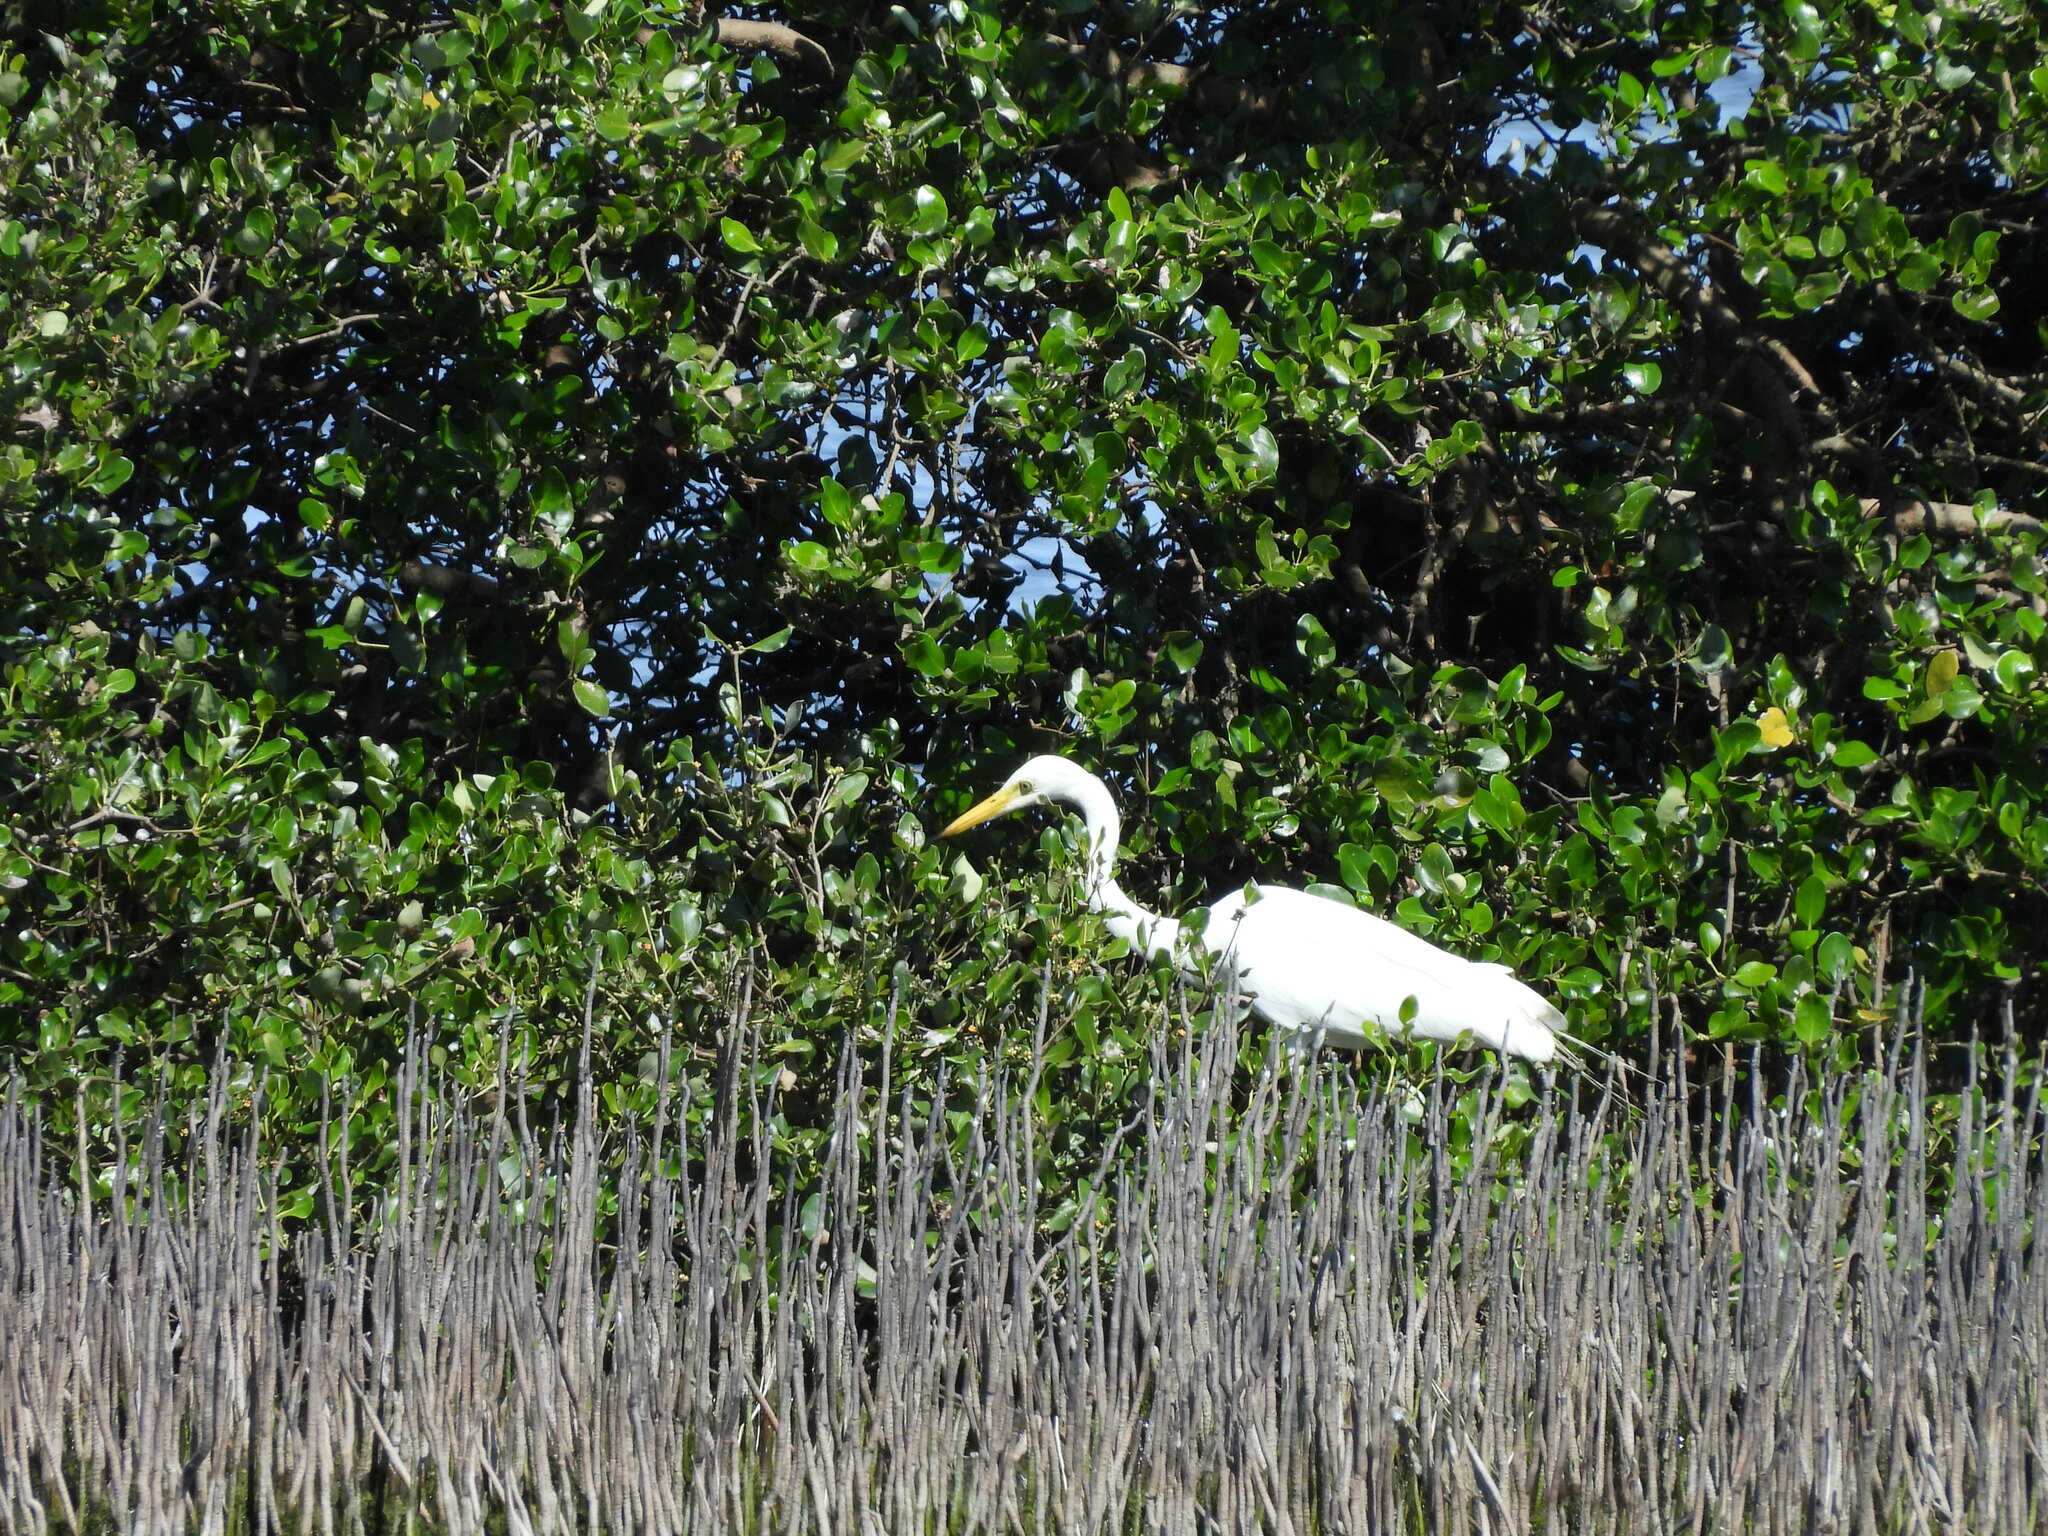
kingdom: Animalia
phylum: Chordata
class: Aves
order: Pelecaniformes
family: Ardeidae
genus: Egretta
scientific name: Egretta intermedia
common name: Intermediate egret
